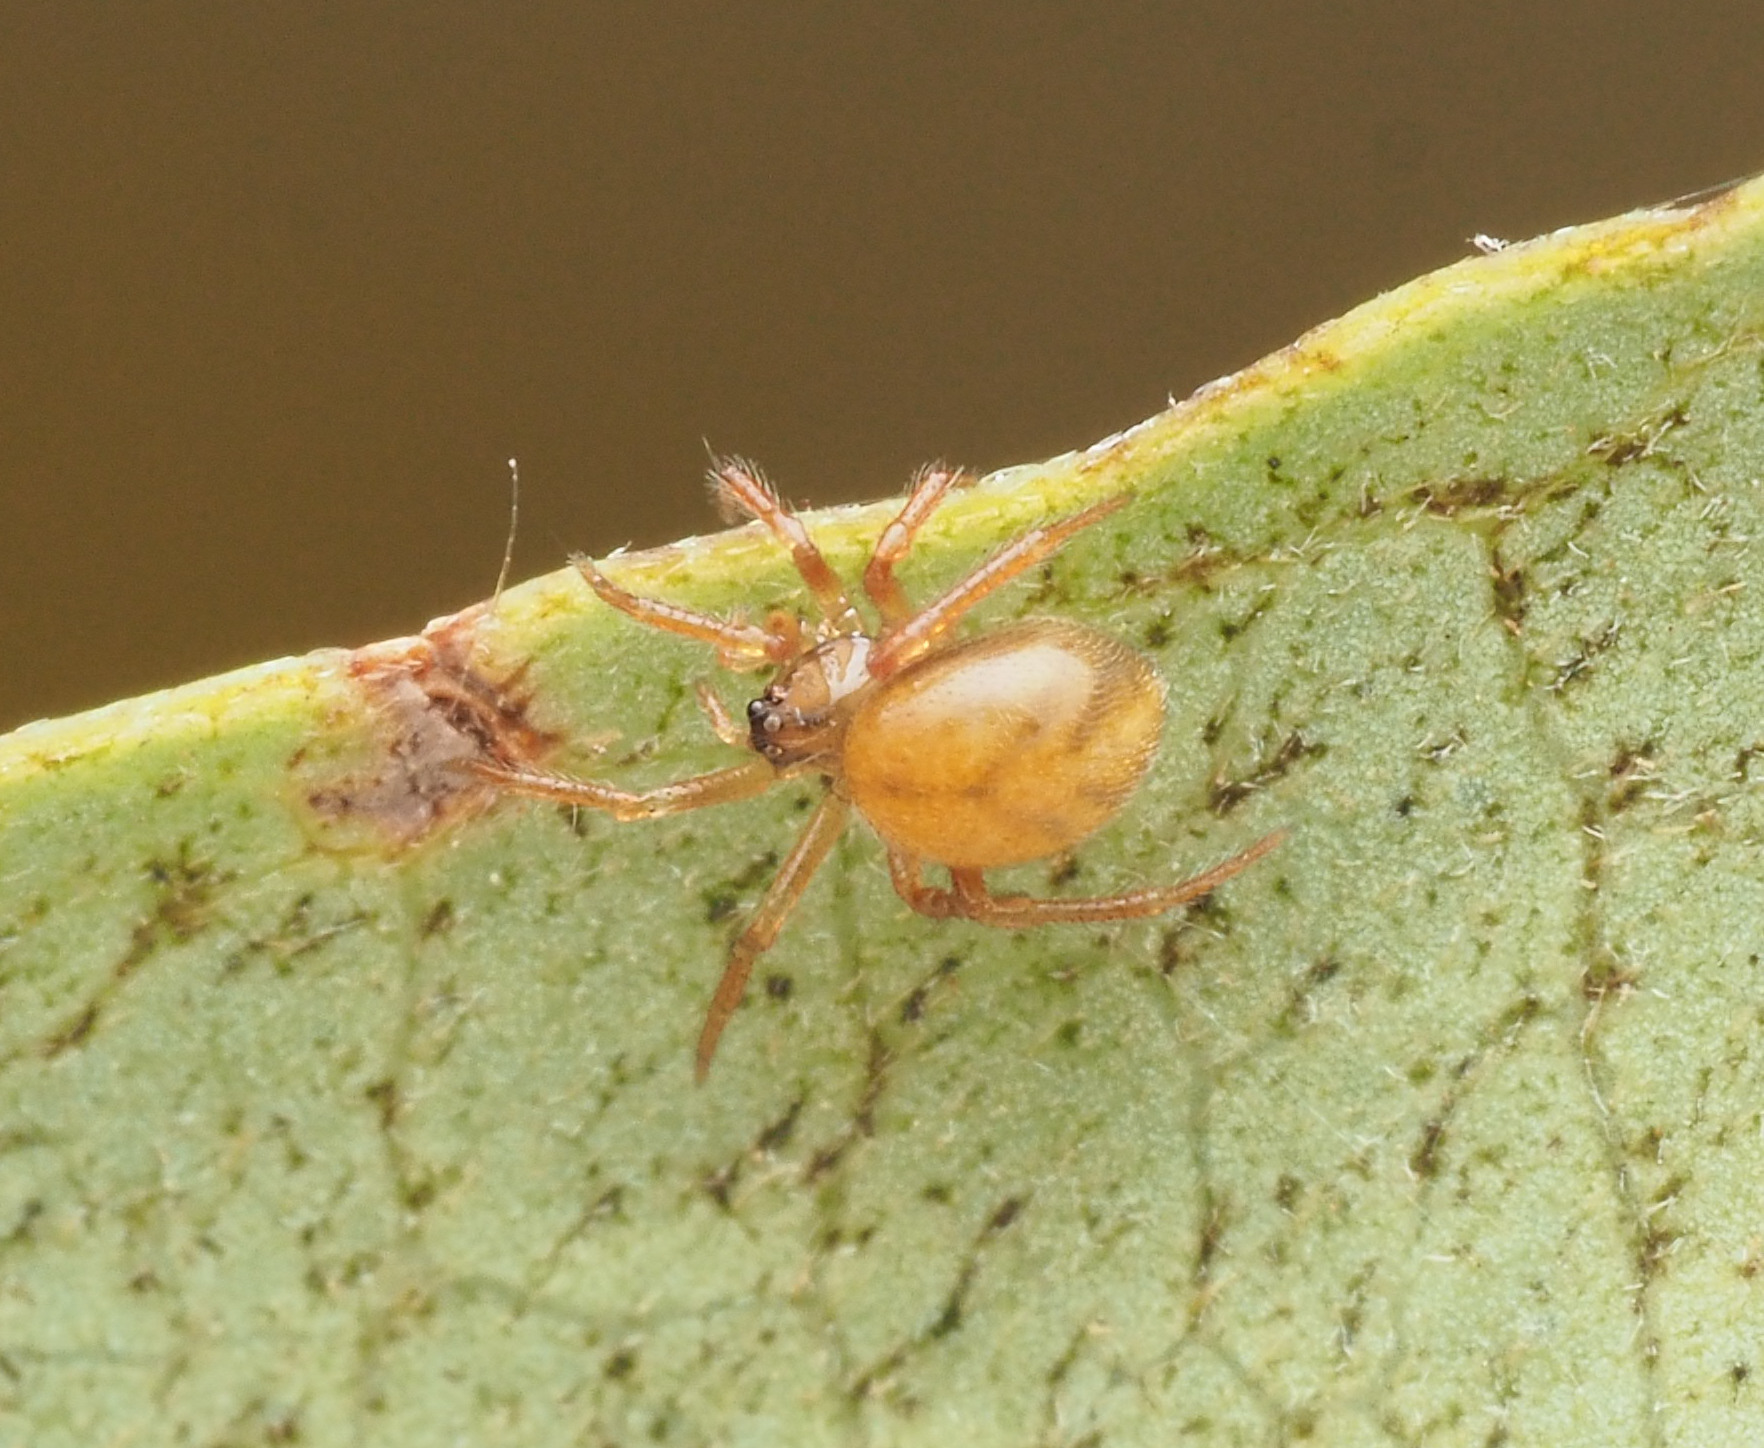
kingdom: Animalia
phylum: Arthropoda
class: Arachnida
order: Araneae
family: Theridiidae
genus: Phycosoma
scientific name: Phycosoma
